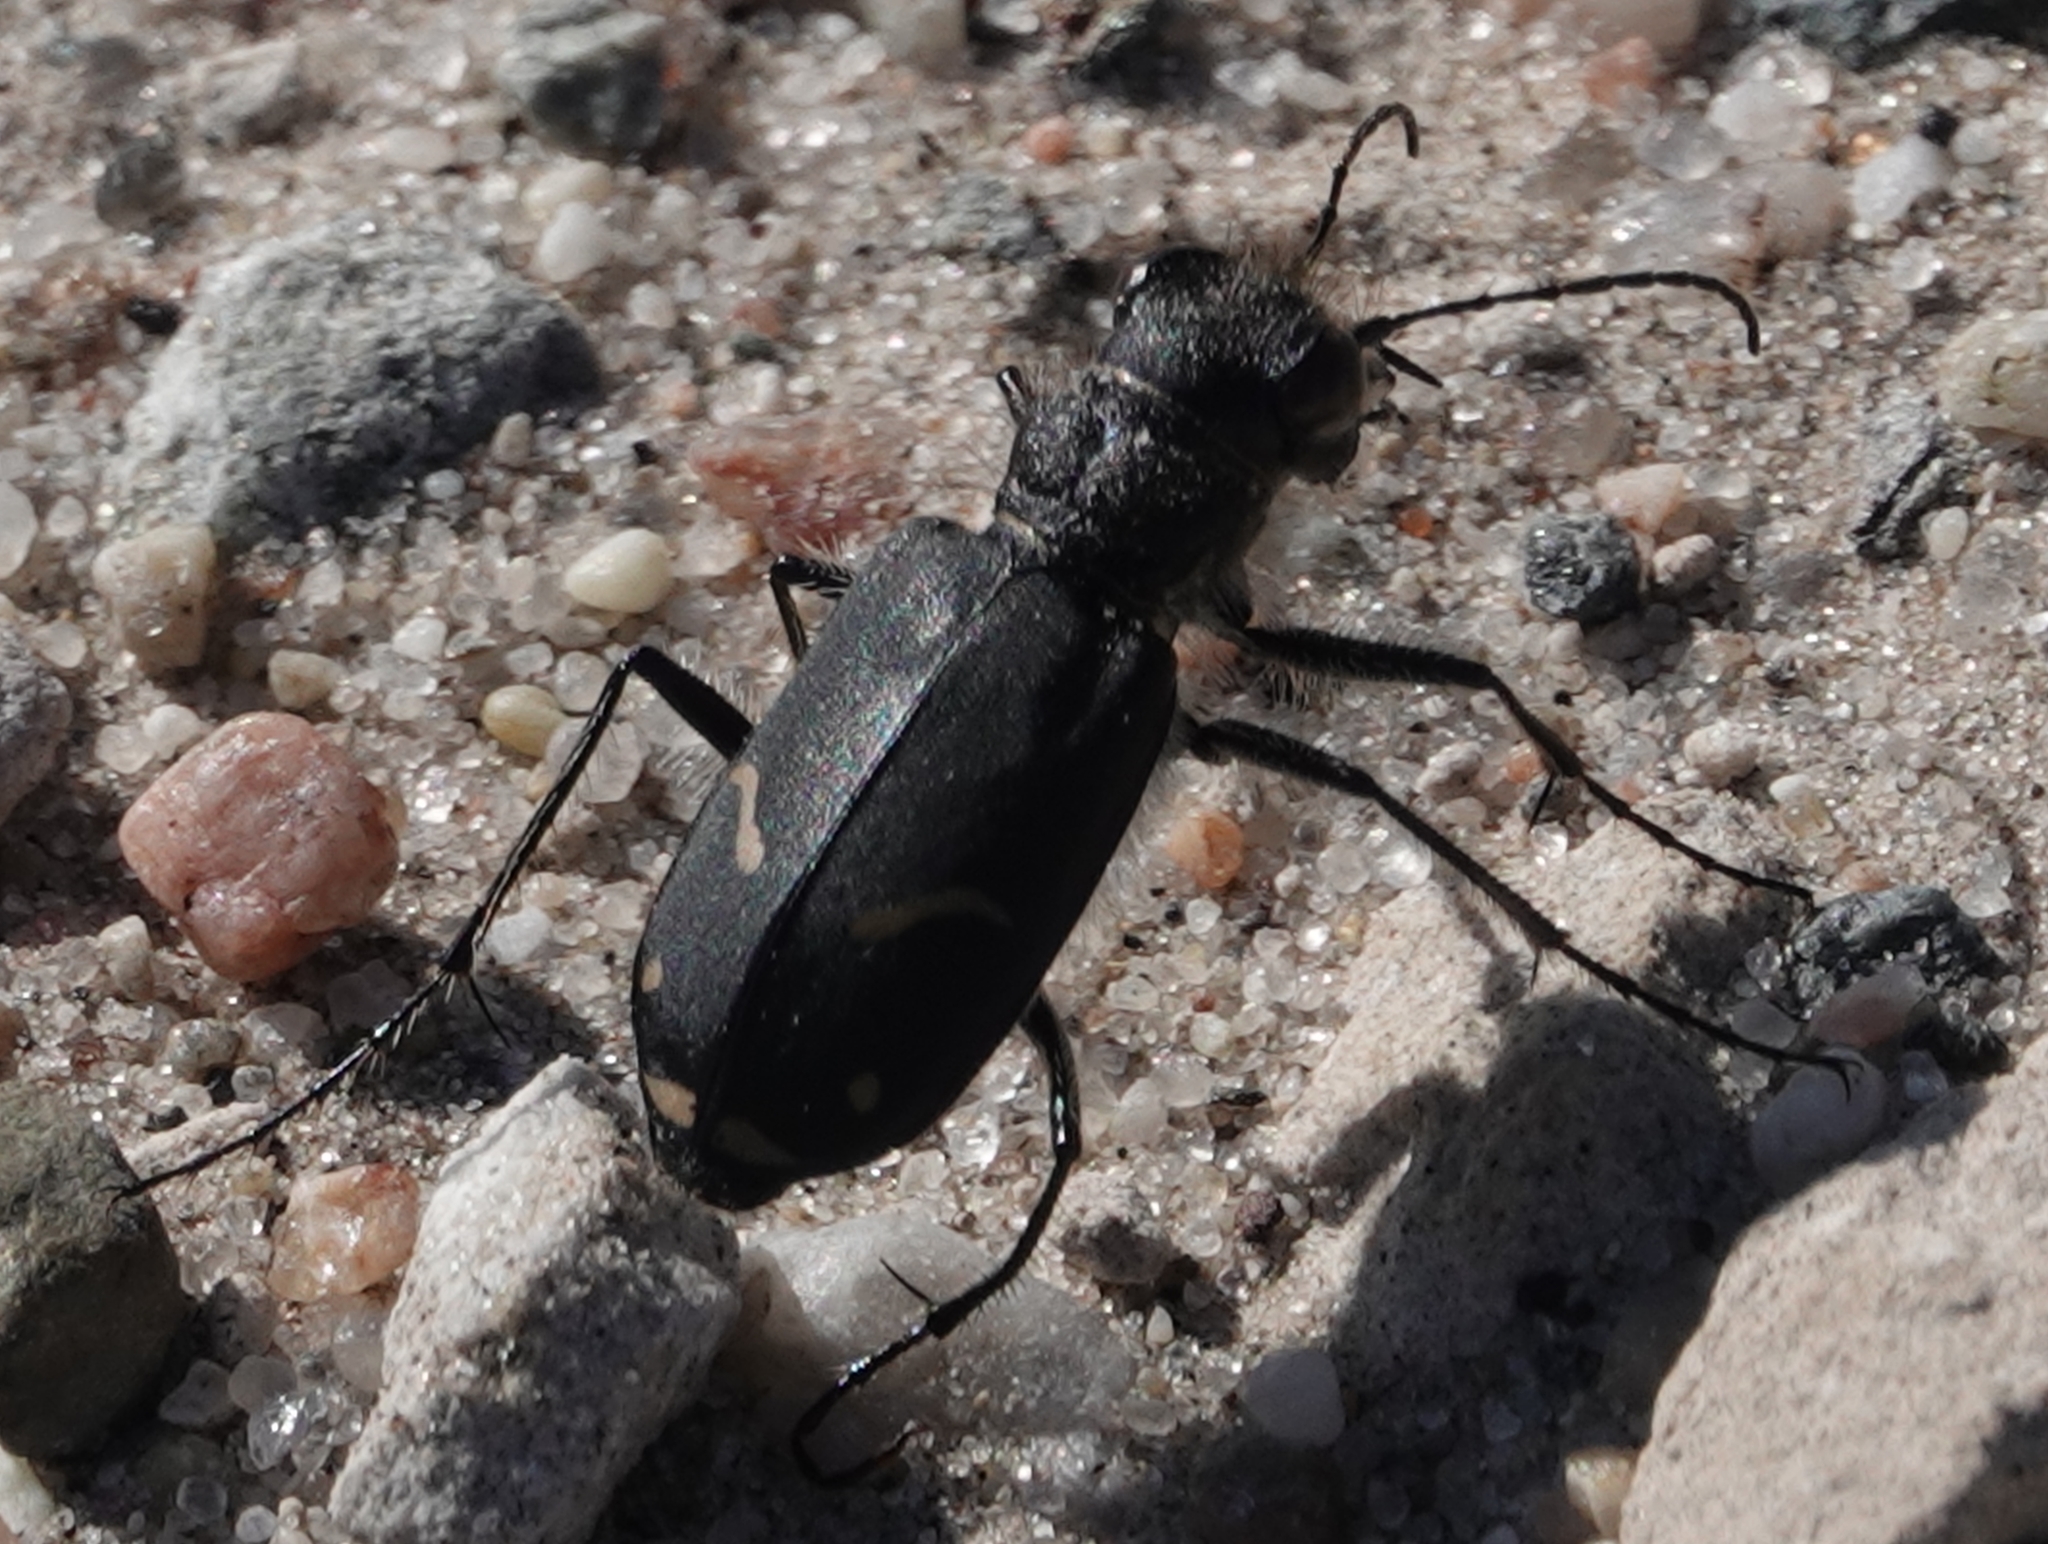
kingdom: Animalia
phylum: Arthropoda
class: Insecta
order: Coleoptera
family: Carabidae
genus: Cicindela
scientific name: Cicindela purpurea
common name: Cow path tiger beetle
